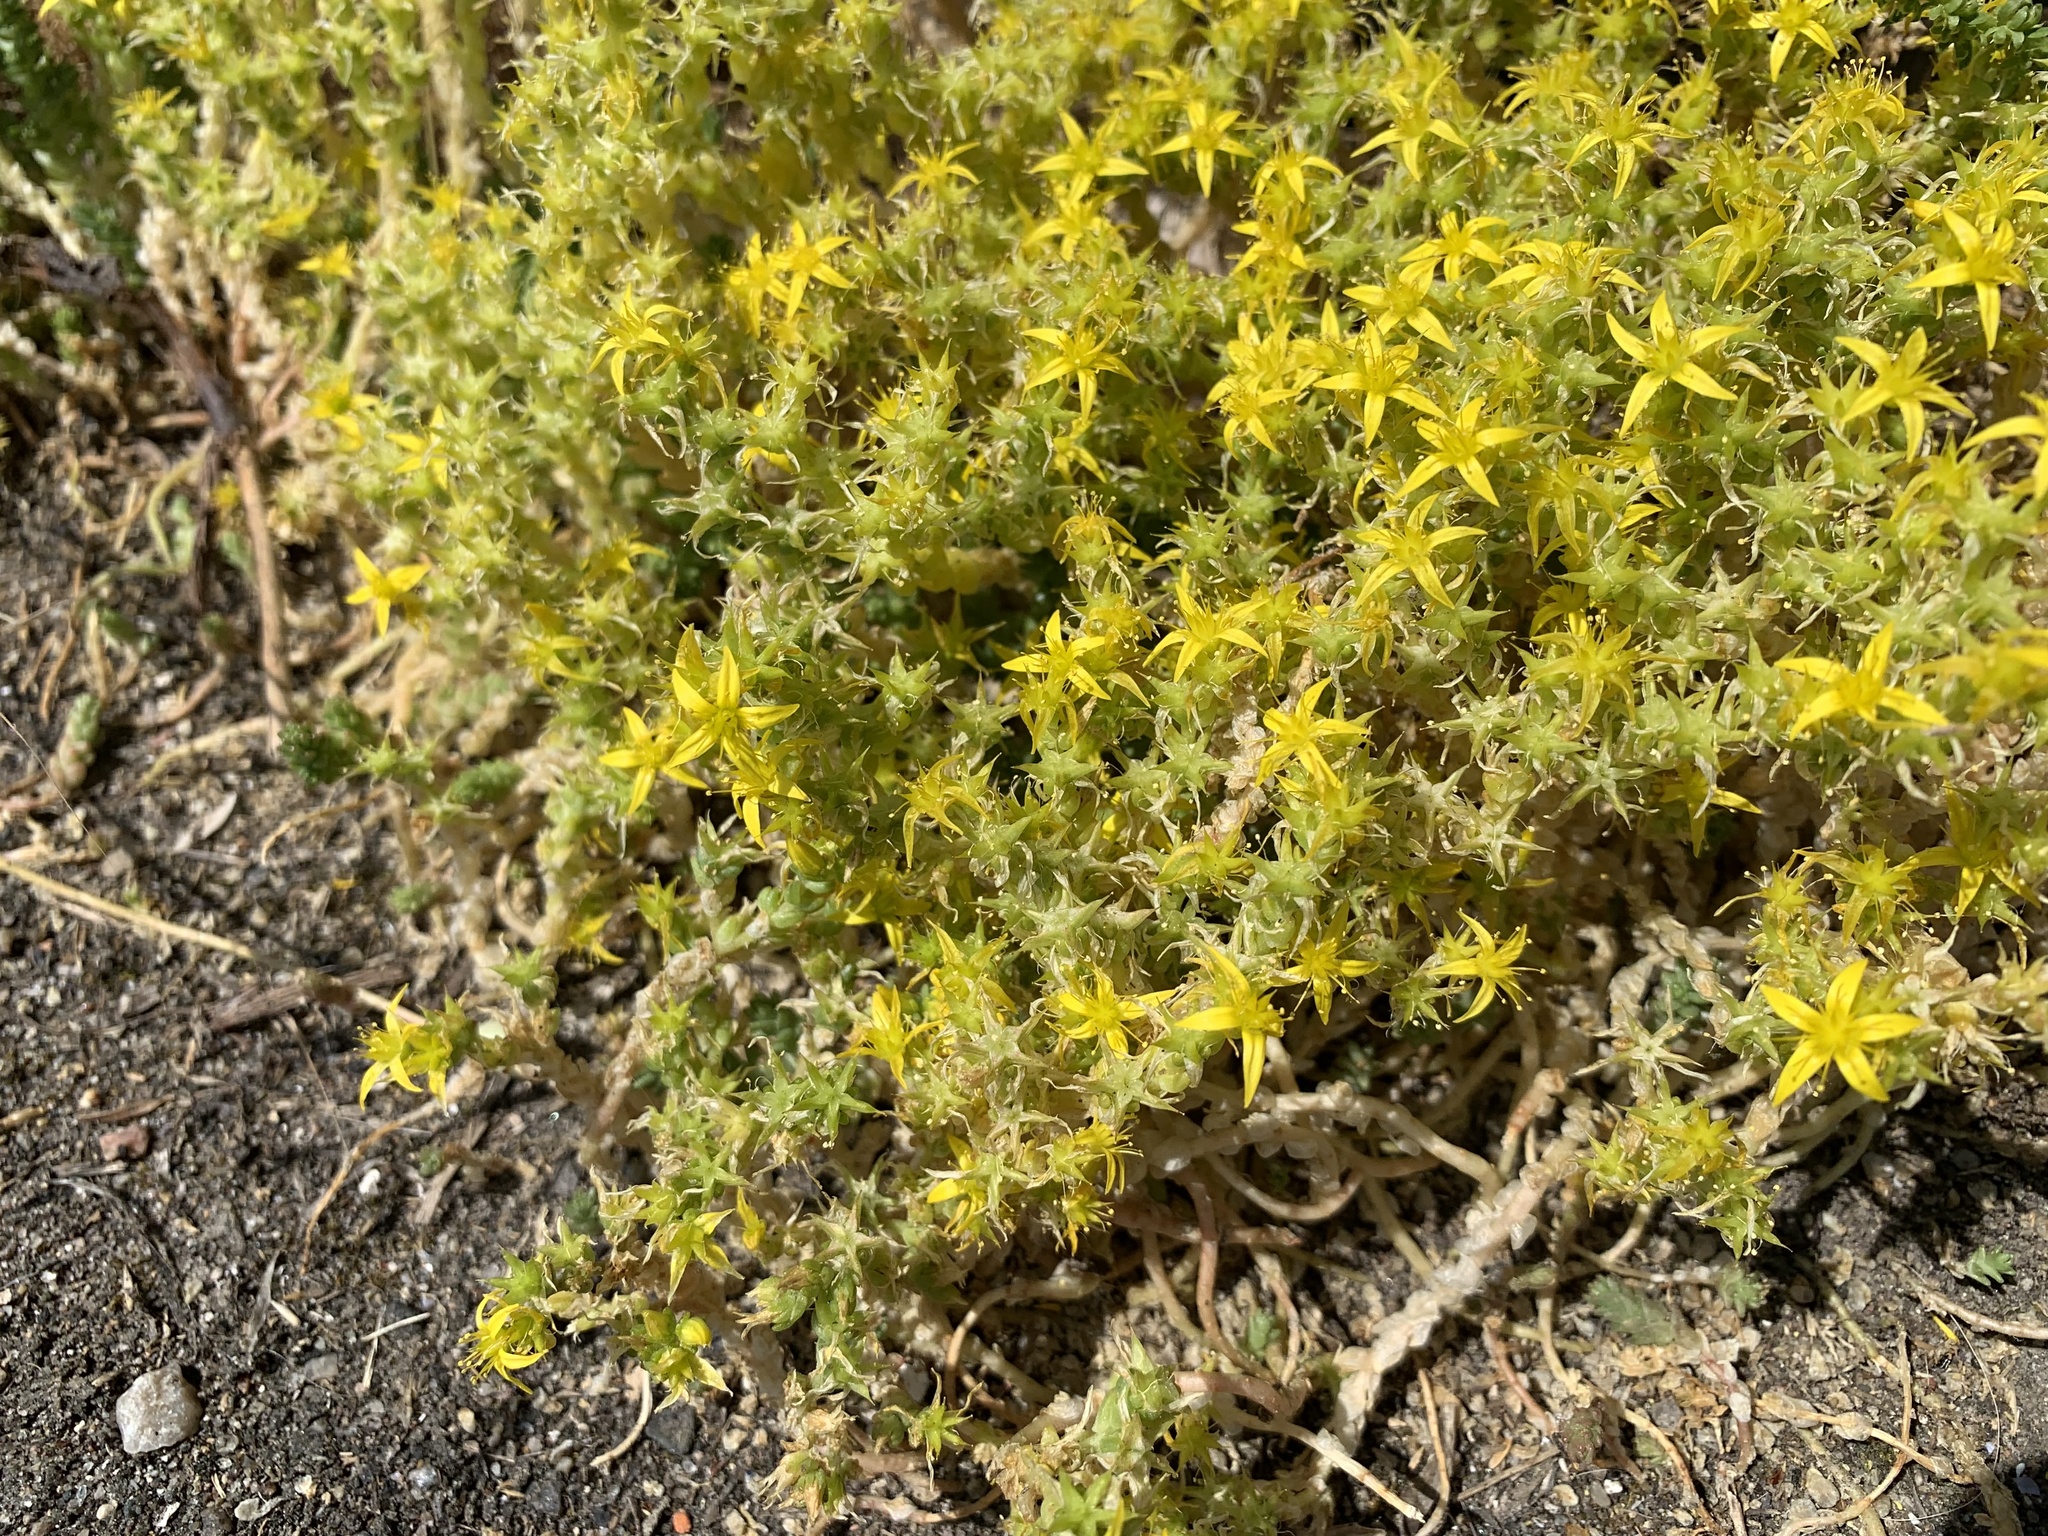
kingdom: Plantae
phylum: Tracheophyta
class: Magnoliopsida
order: Saxifragales
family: Crassulaceae
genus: Sedum
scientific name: Sedum acre
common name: Biting stonecrop
